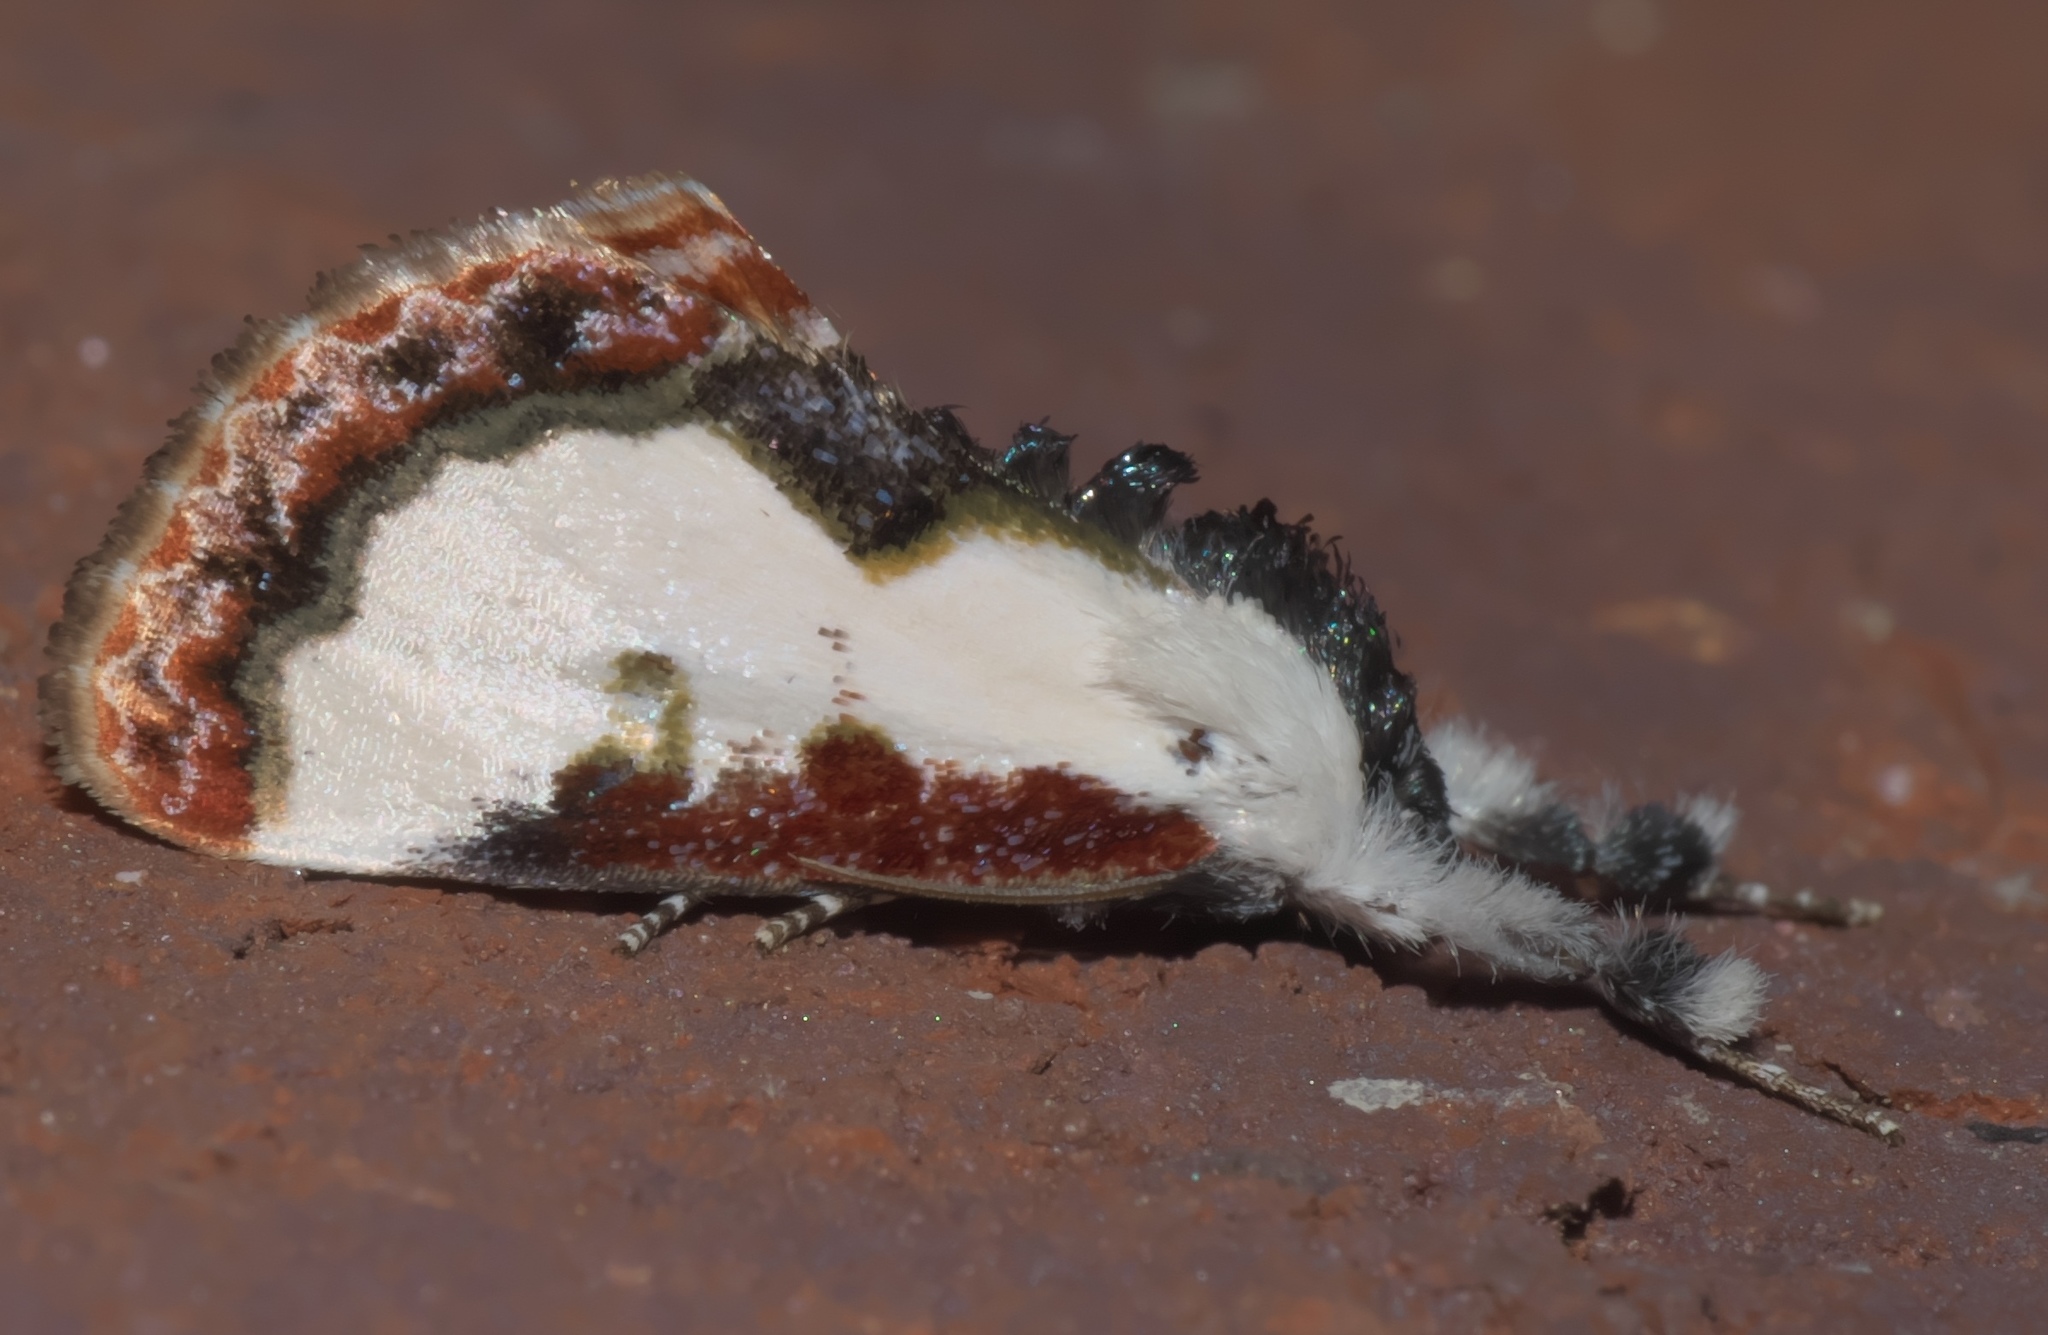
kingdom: Animalia
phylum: Arthropoda
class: Insecta
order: Lepidoptera
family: Noctuidae
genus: Eudryas
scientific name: Eudryas unio
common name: Pearly wood-nymph
